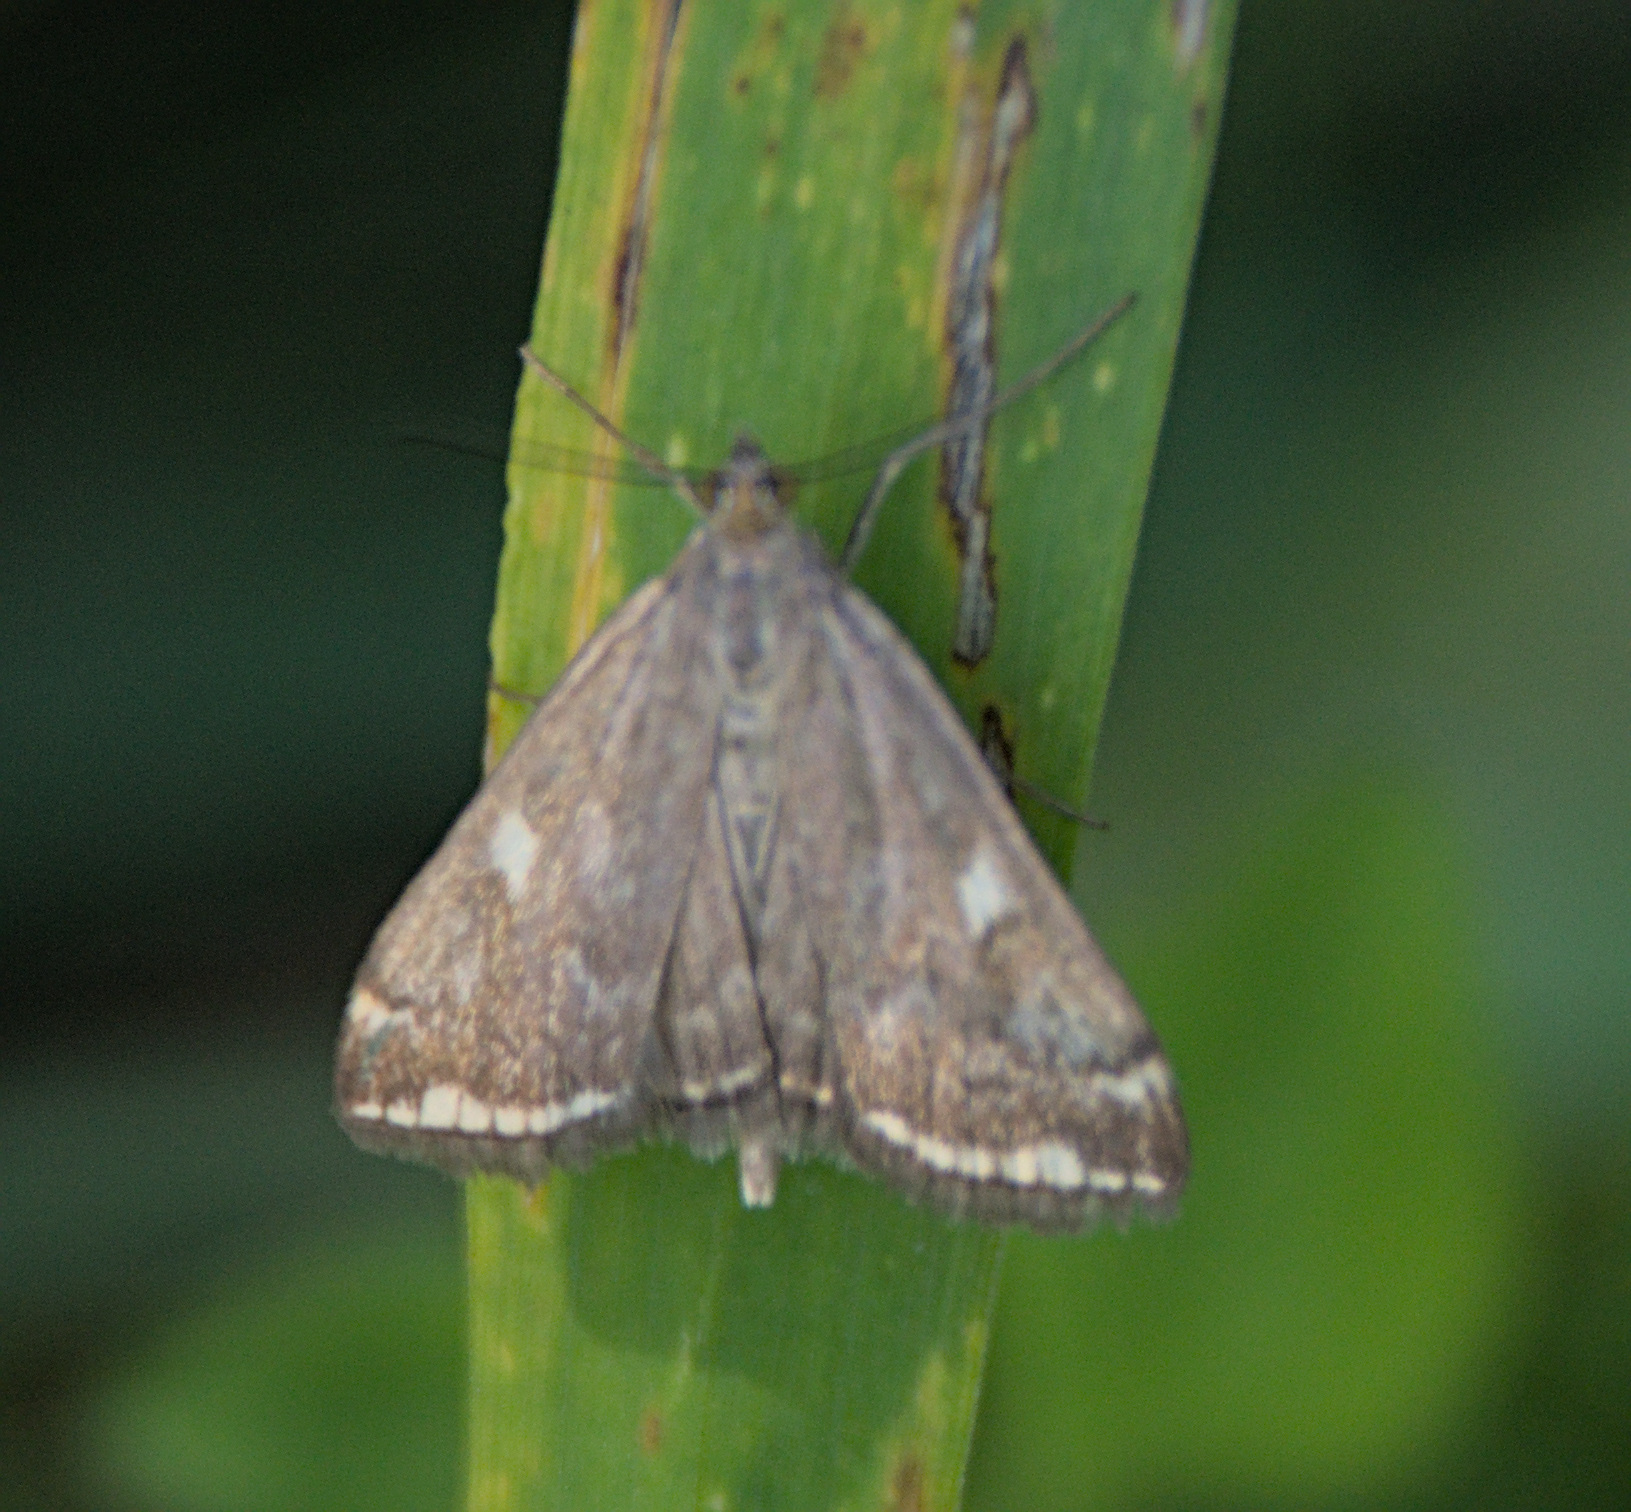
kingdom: Animalia
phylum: Arthropoda
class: Insecta
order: Lepidoptera
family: Crambidae
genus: Loxostege
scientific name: Loxostege sticticalis
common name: Crambid moth
